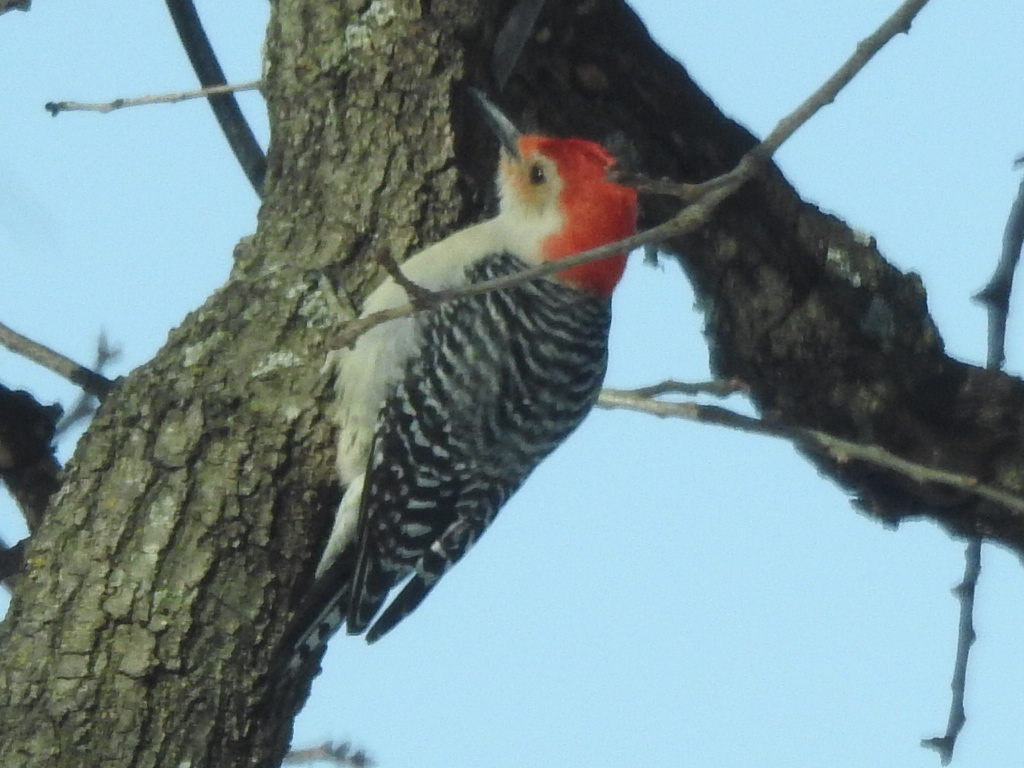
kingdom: Animalia
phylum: Chordata
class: Aves
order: Piciformes
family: Picidae
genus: Melanerpes
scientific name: Melanerpes carolinus
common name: Red-bellied woodpecker
